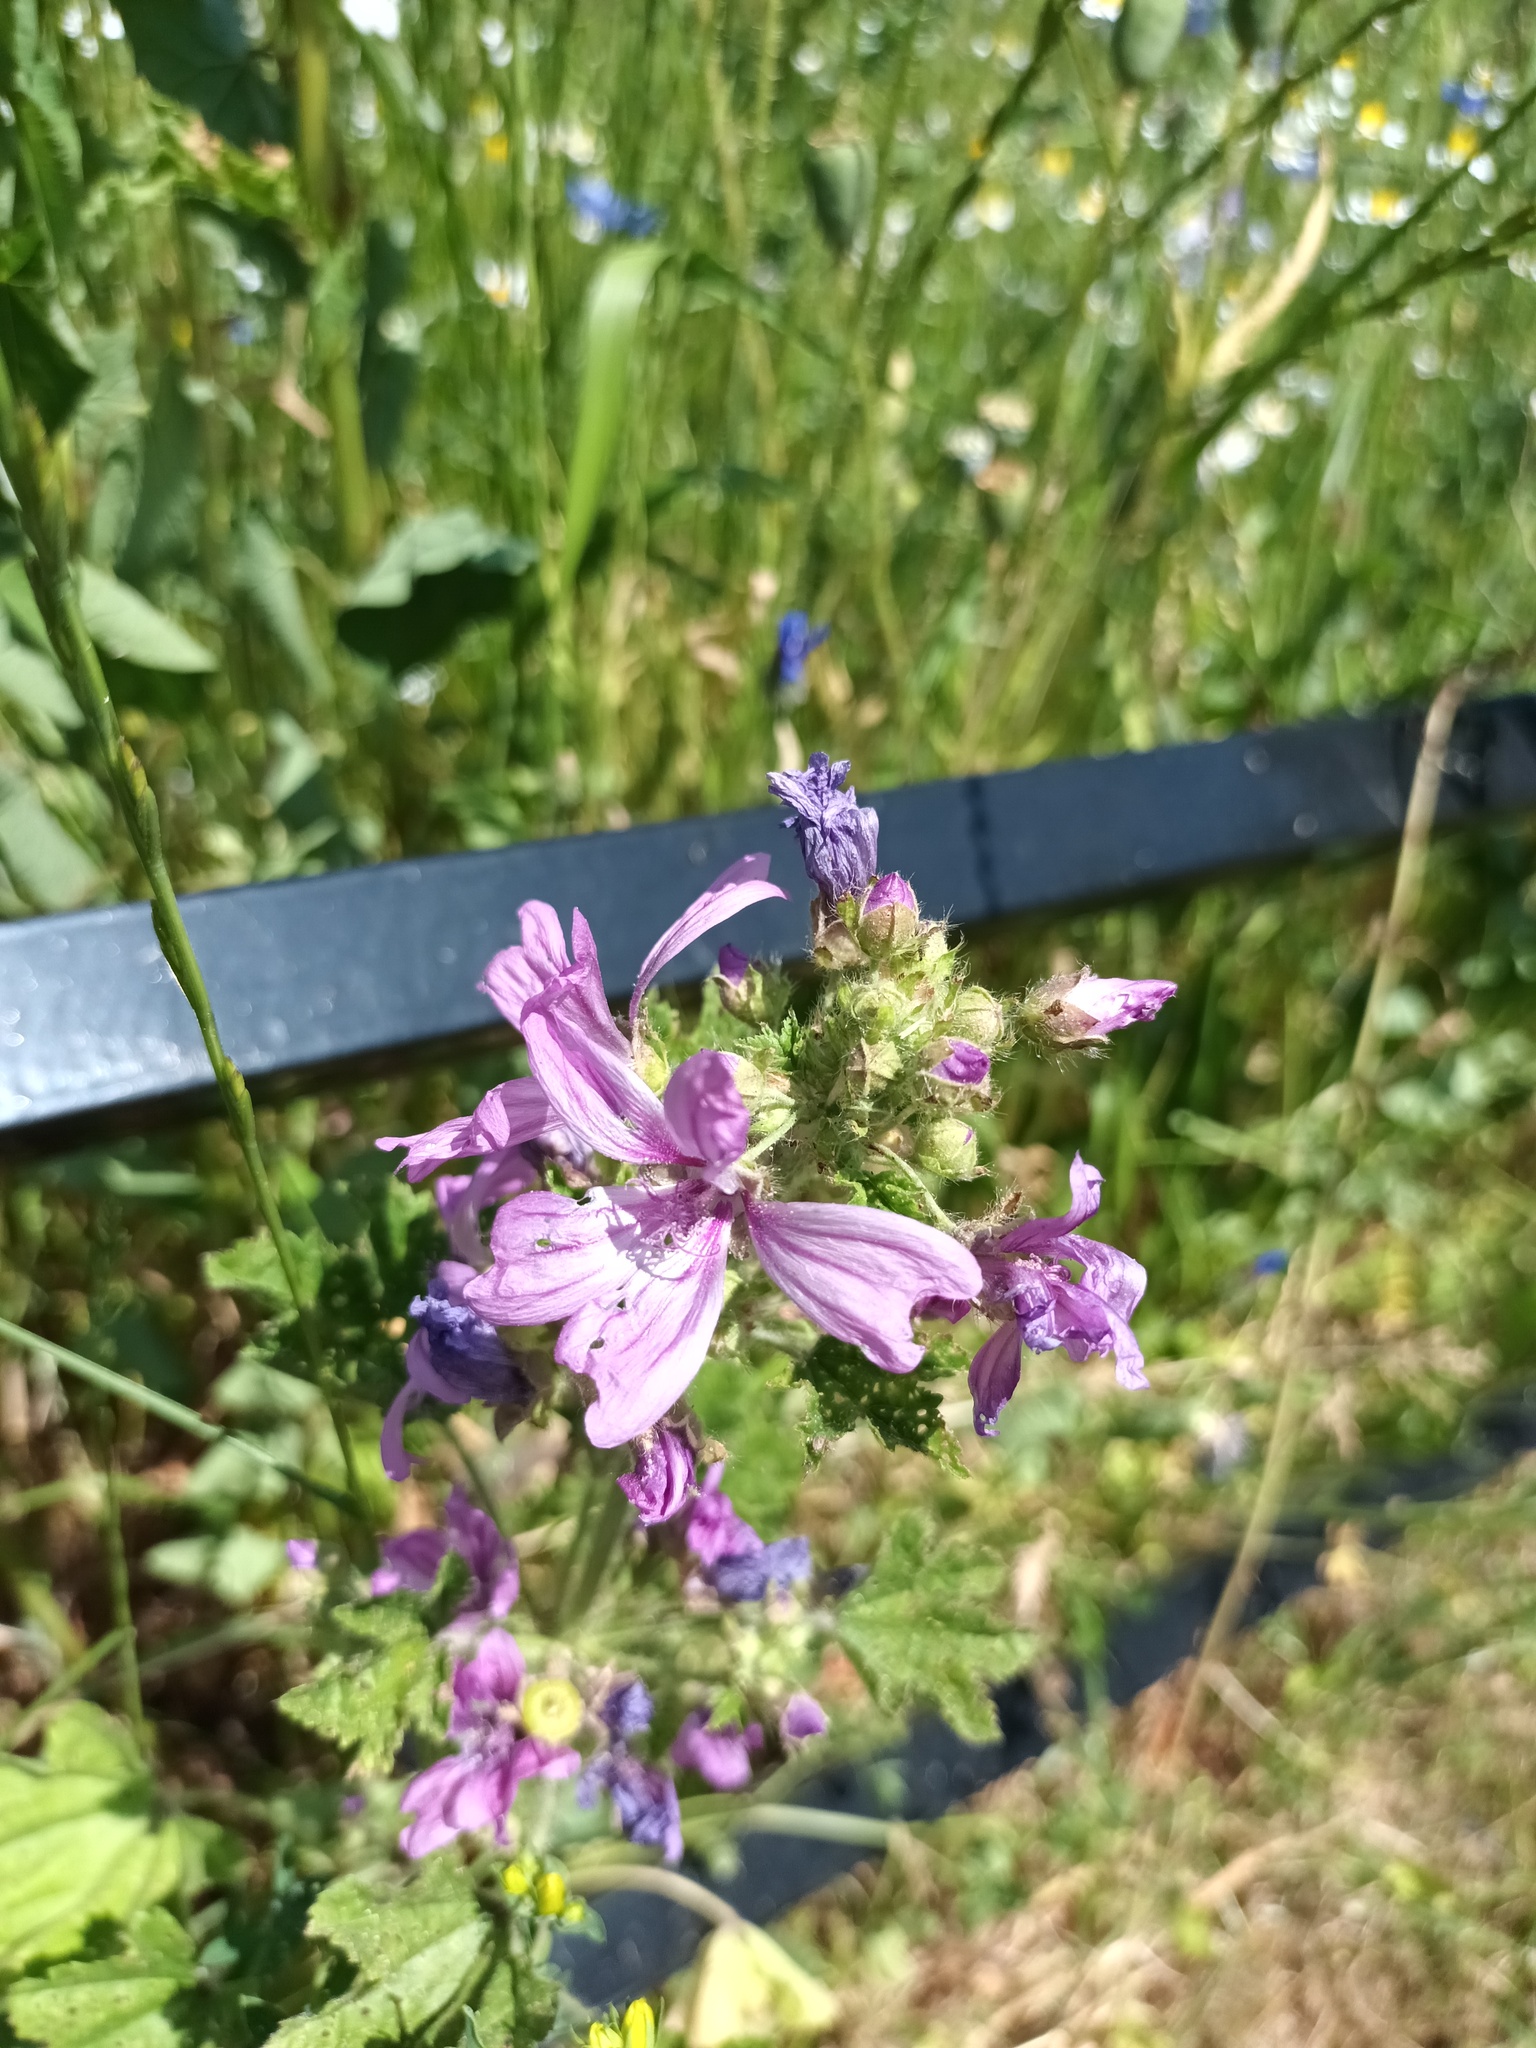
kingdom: Plantae
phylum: Tracheophyta
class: Magnoliopsida
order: Malvales
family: Malvaceae
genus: Malva
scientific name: Malva sylvestris
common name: Common mallow
